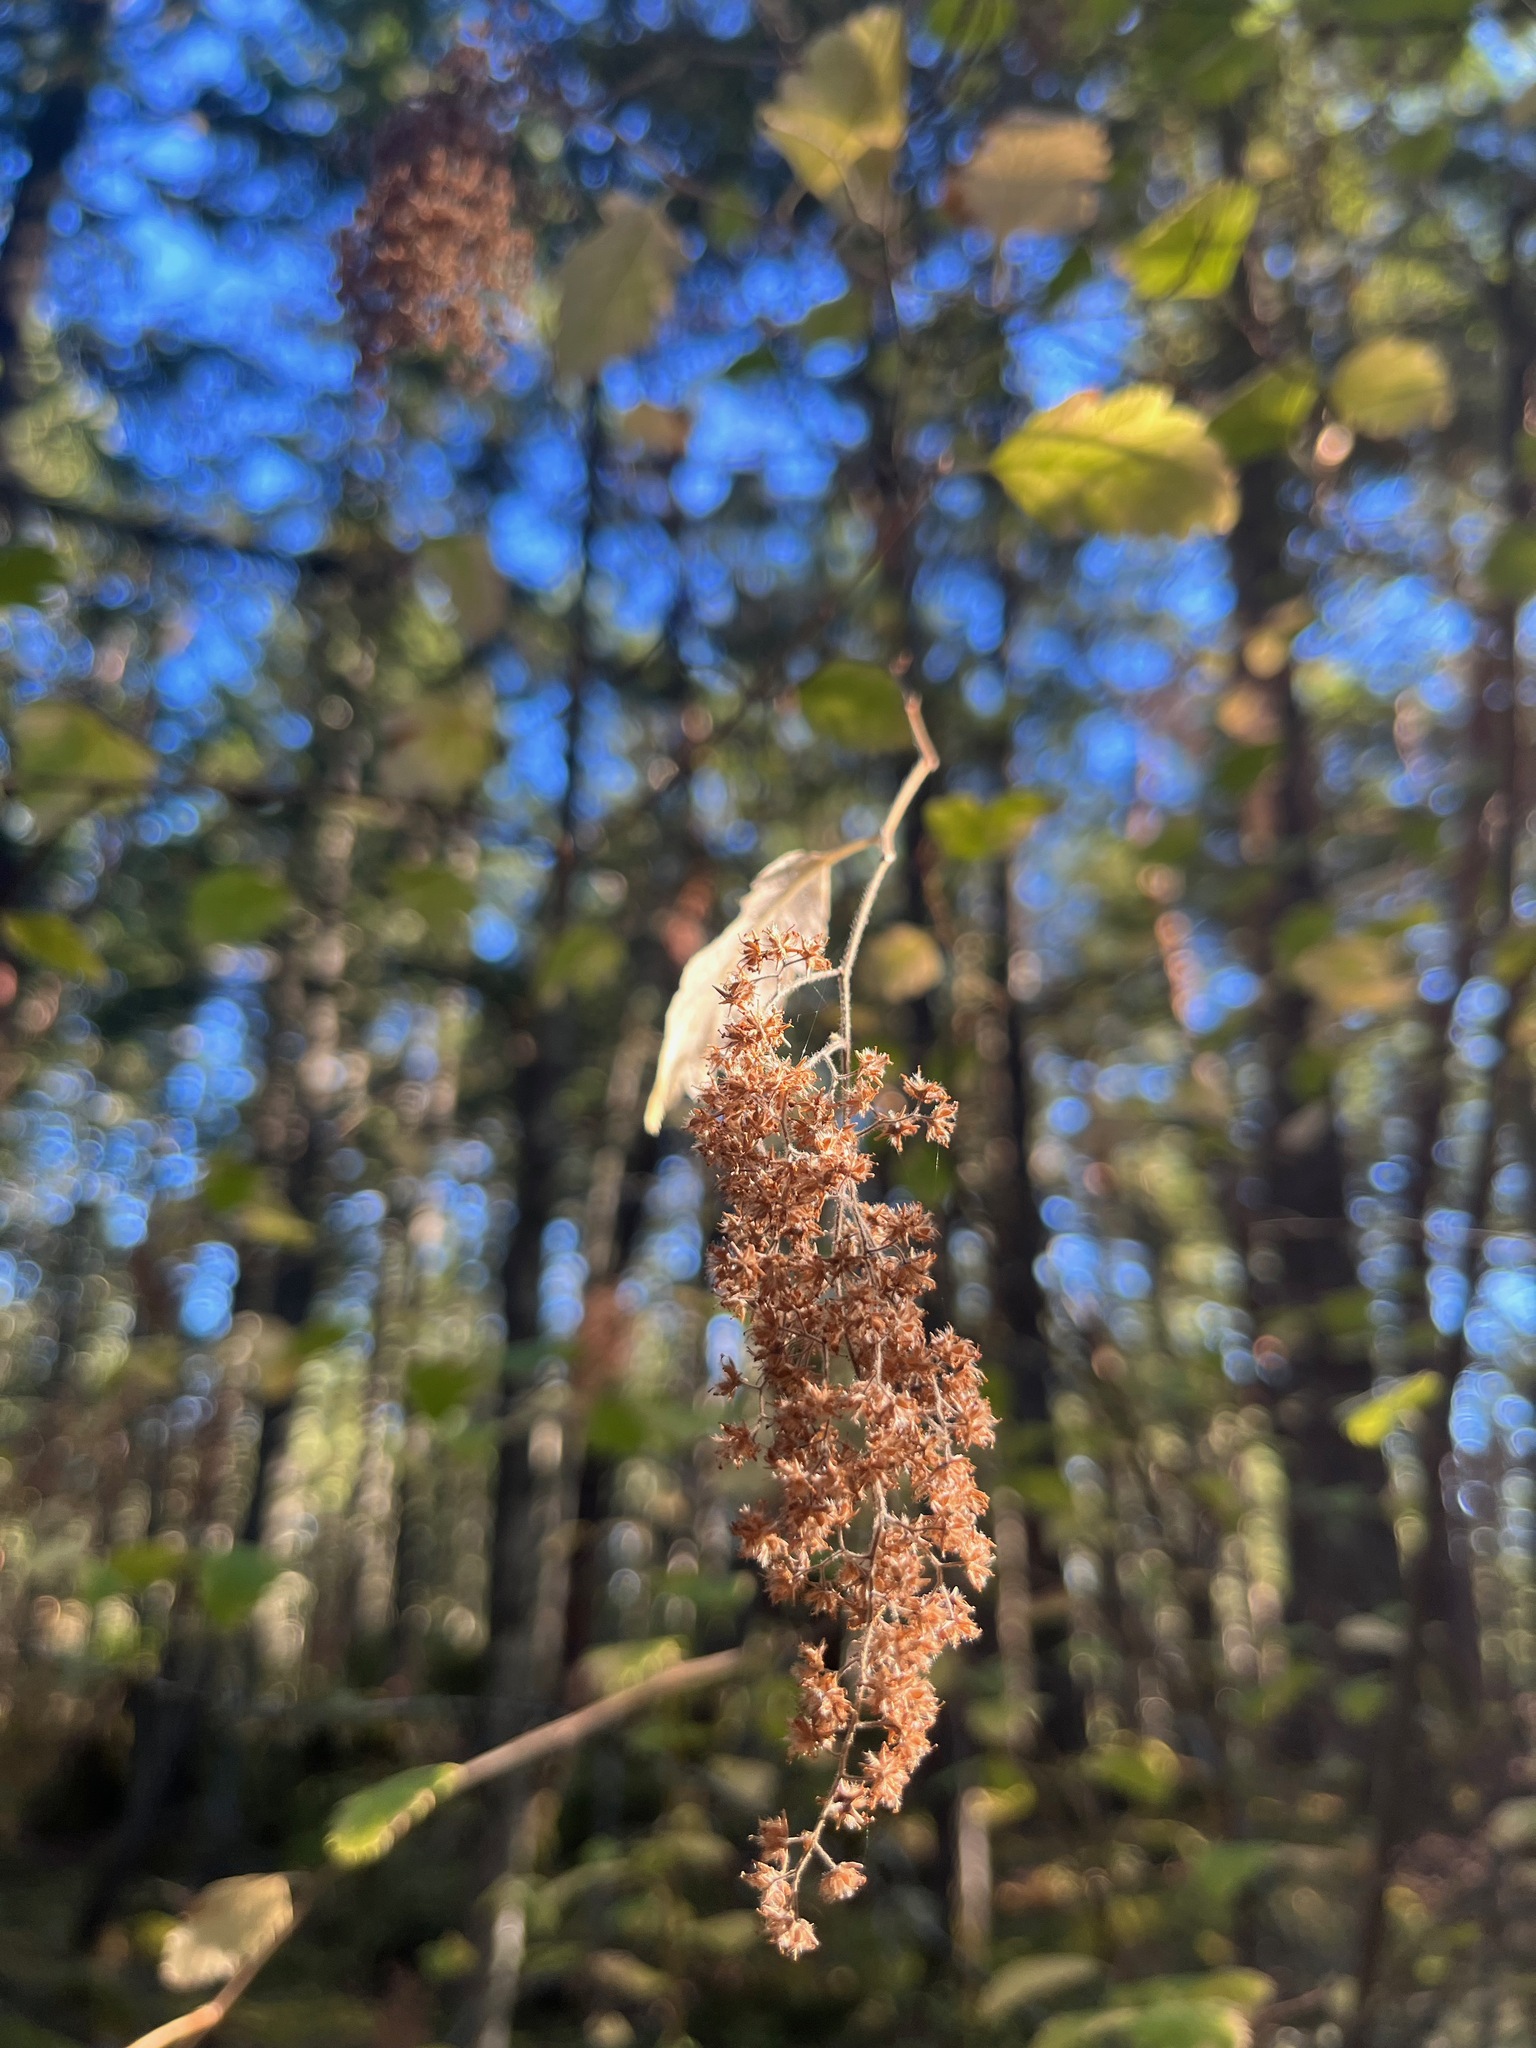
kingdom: Plantae
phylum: Tracheophyta
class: Magnoliopsida
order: Rosales
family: Rosaceae
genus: Holodiscus
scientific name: Holodiscus discolor
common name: Oceanspray
